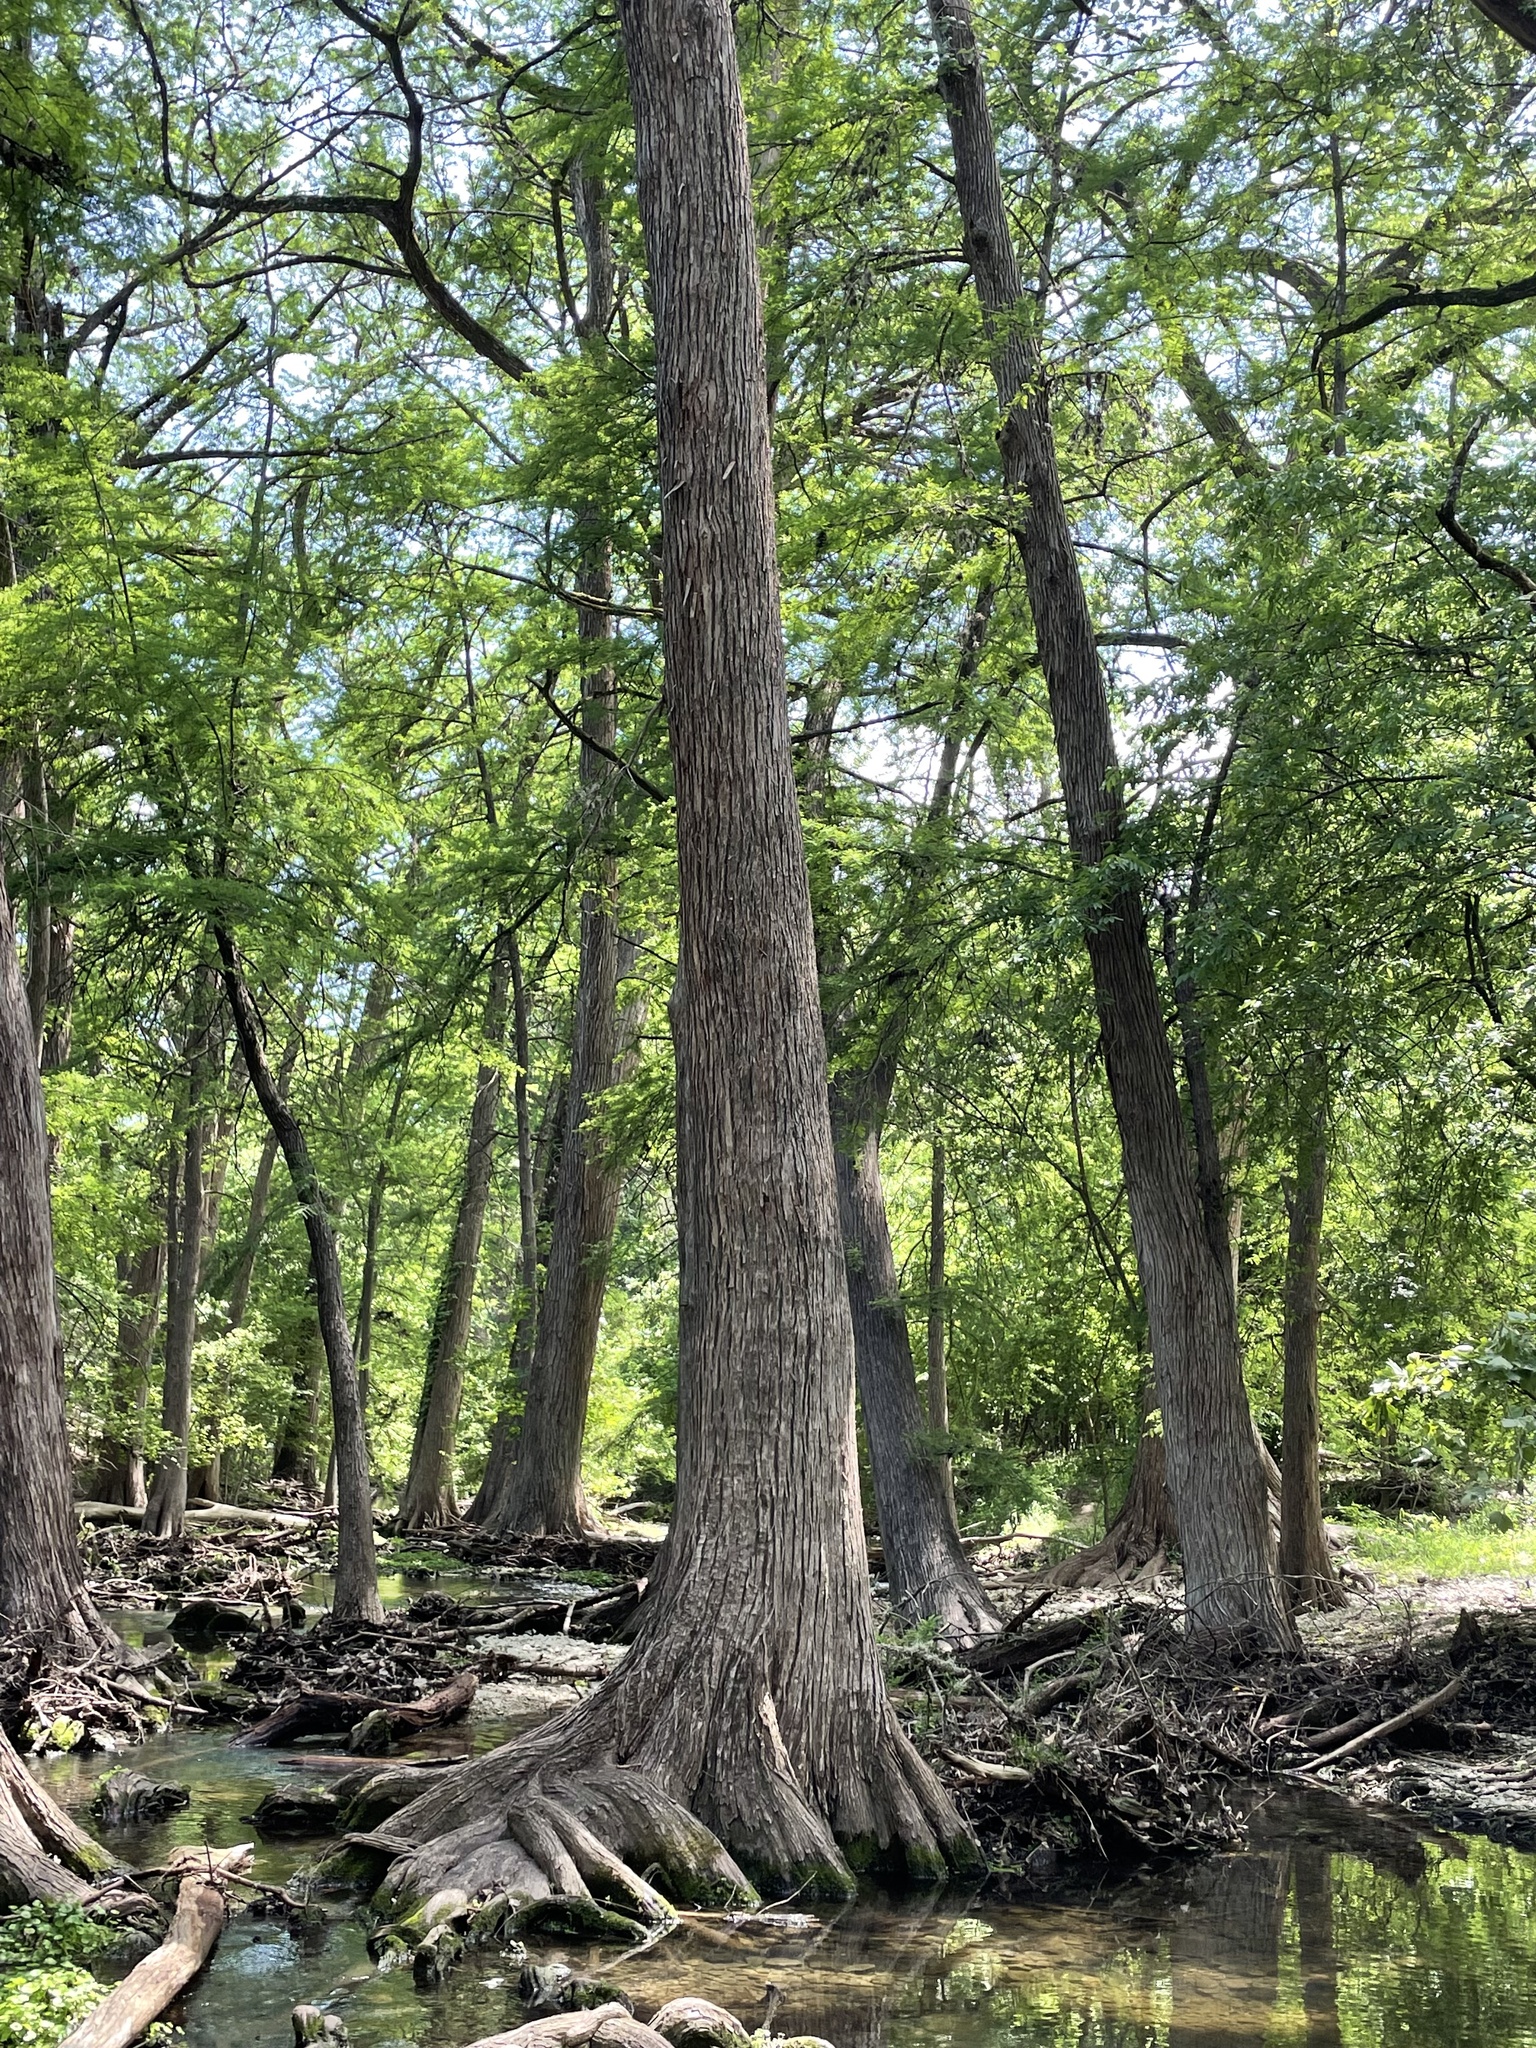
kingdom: Plantae
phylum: Tracheophyta
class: Pinopsida
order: Pinales
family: Cupressaceae
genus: Taxodium
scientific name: Taxodium distichum
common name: Bald cypress
